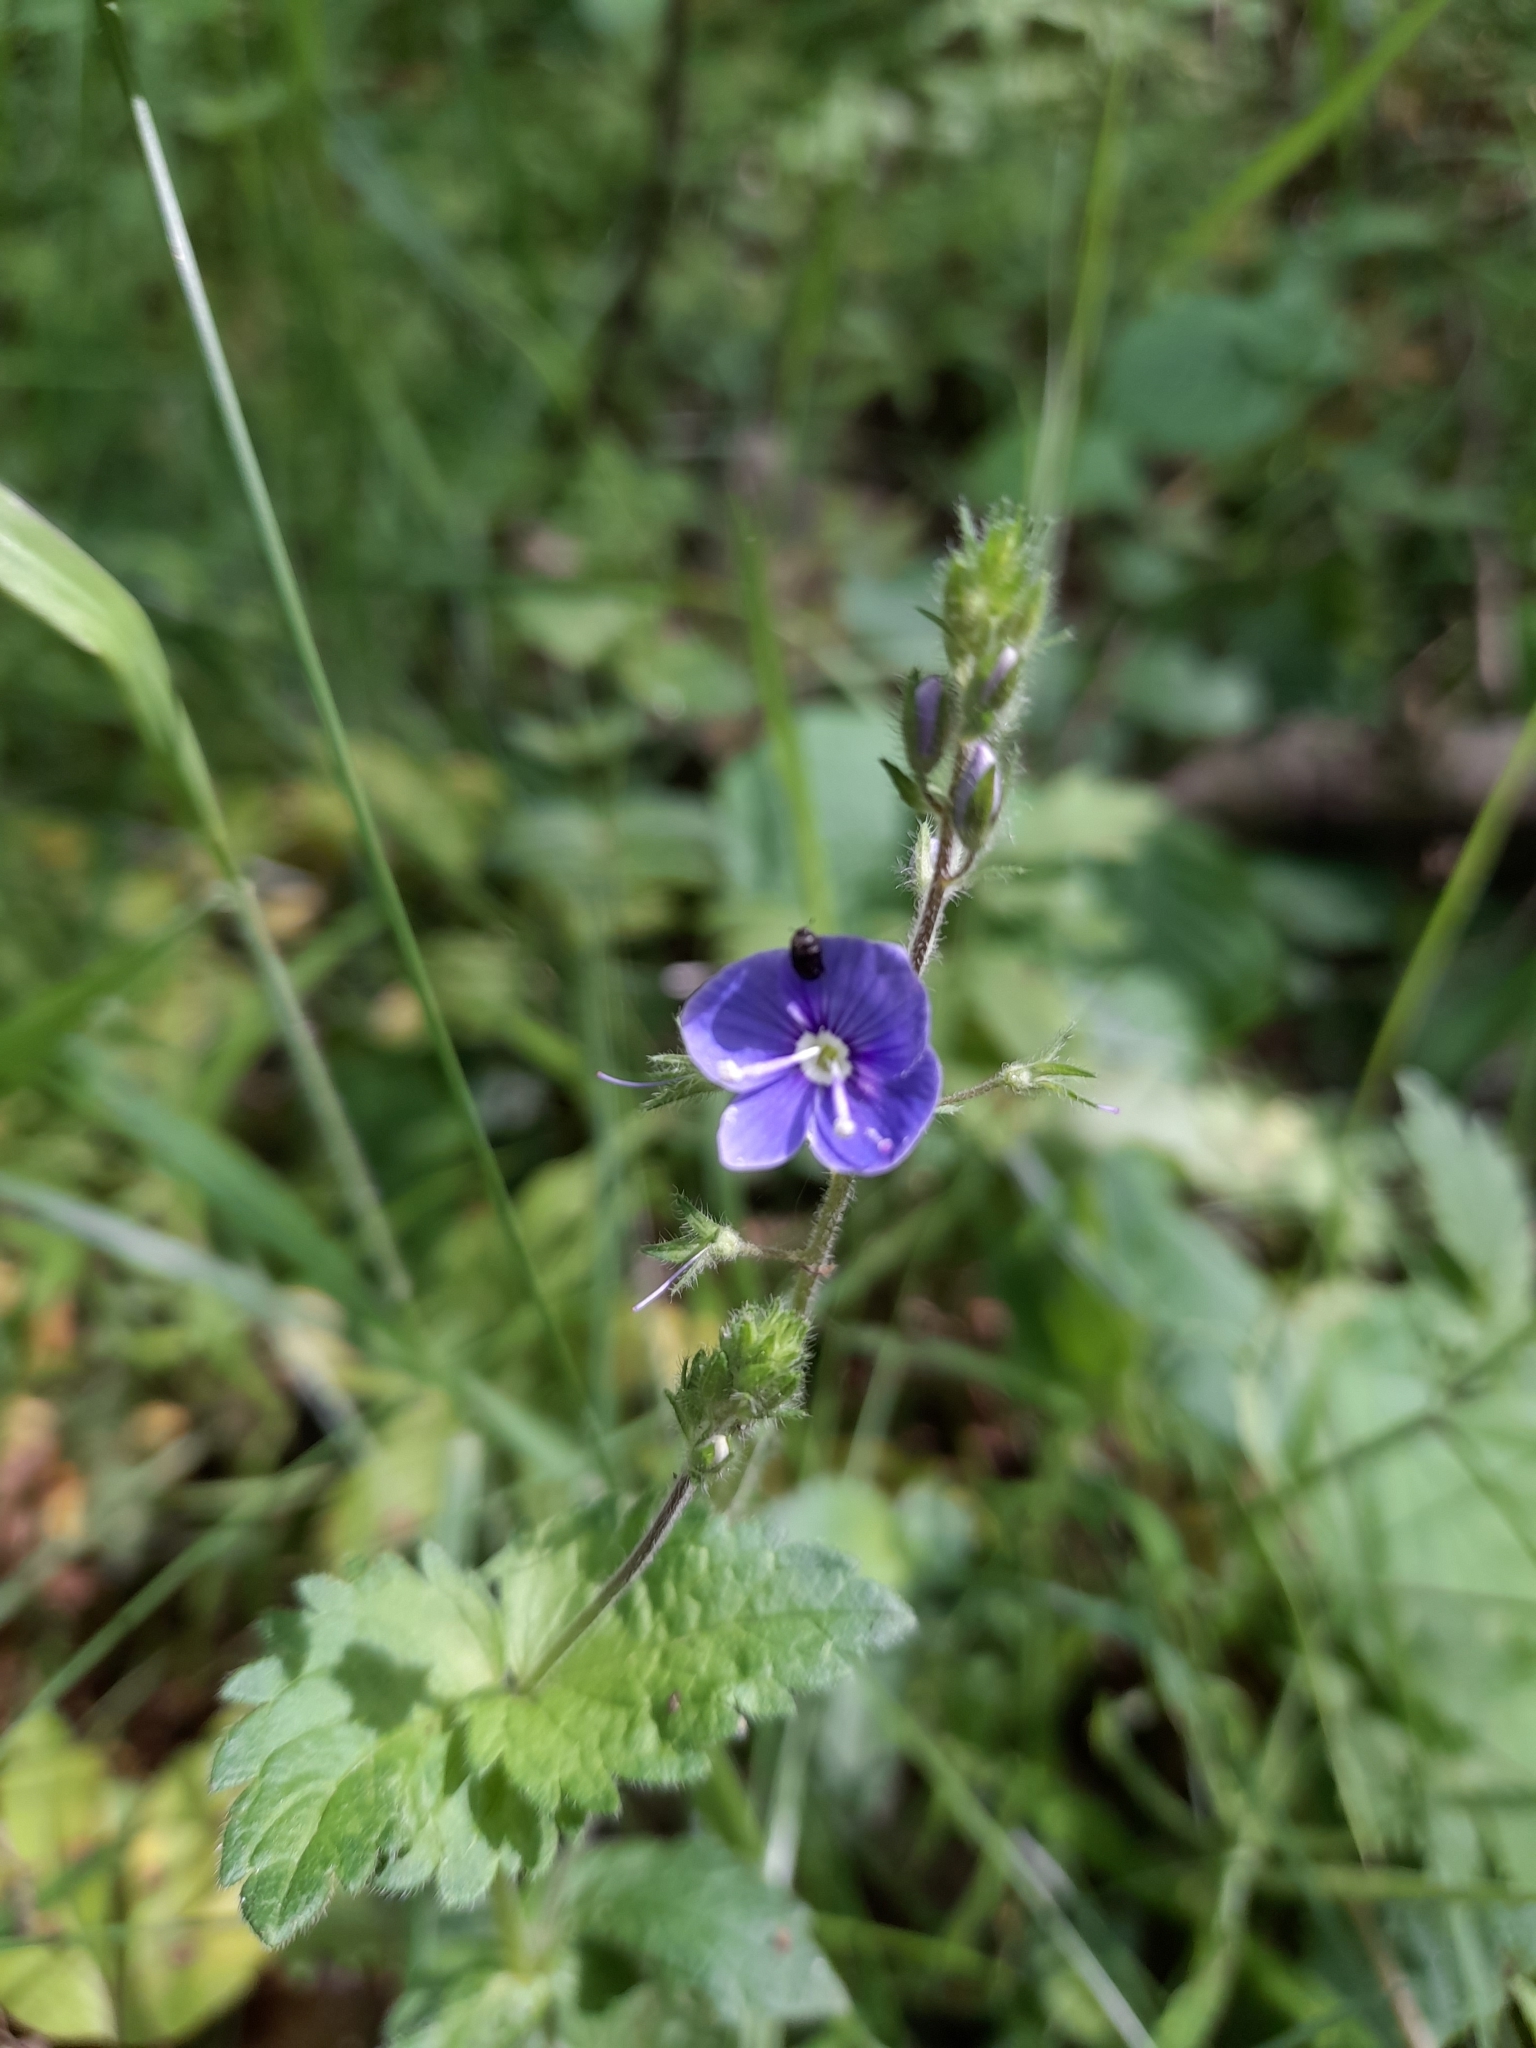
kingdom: Plantae
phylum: Tracheophyta
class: Magnoliopsida
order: Lamiales
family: Plantaginaceae
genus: Veronica
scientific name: Veronica chamaedrys
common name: Germander speedwell
